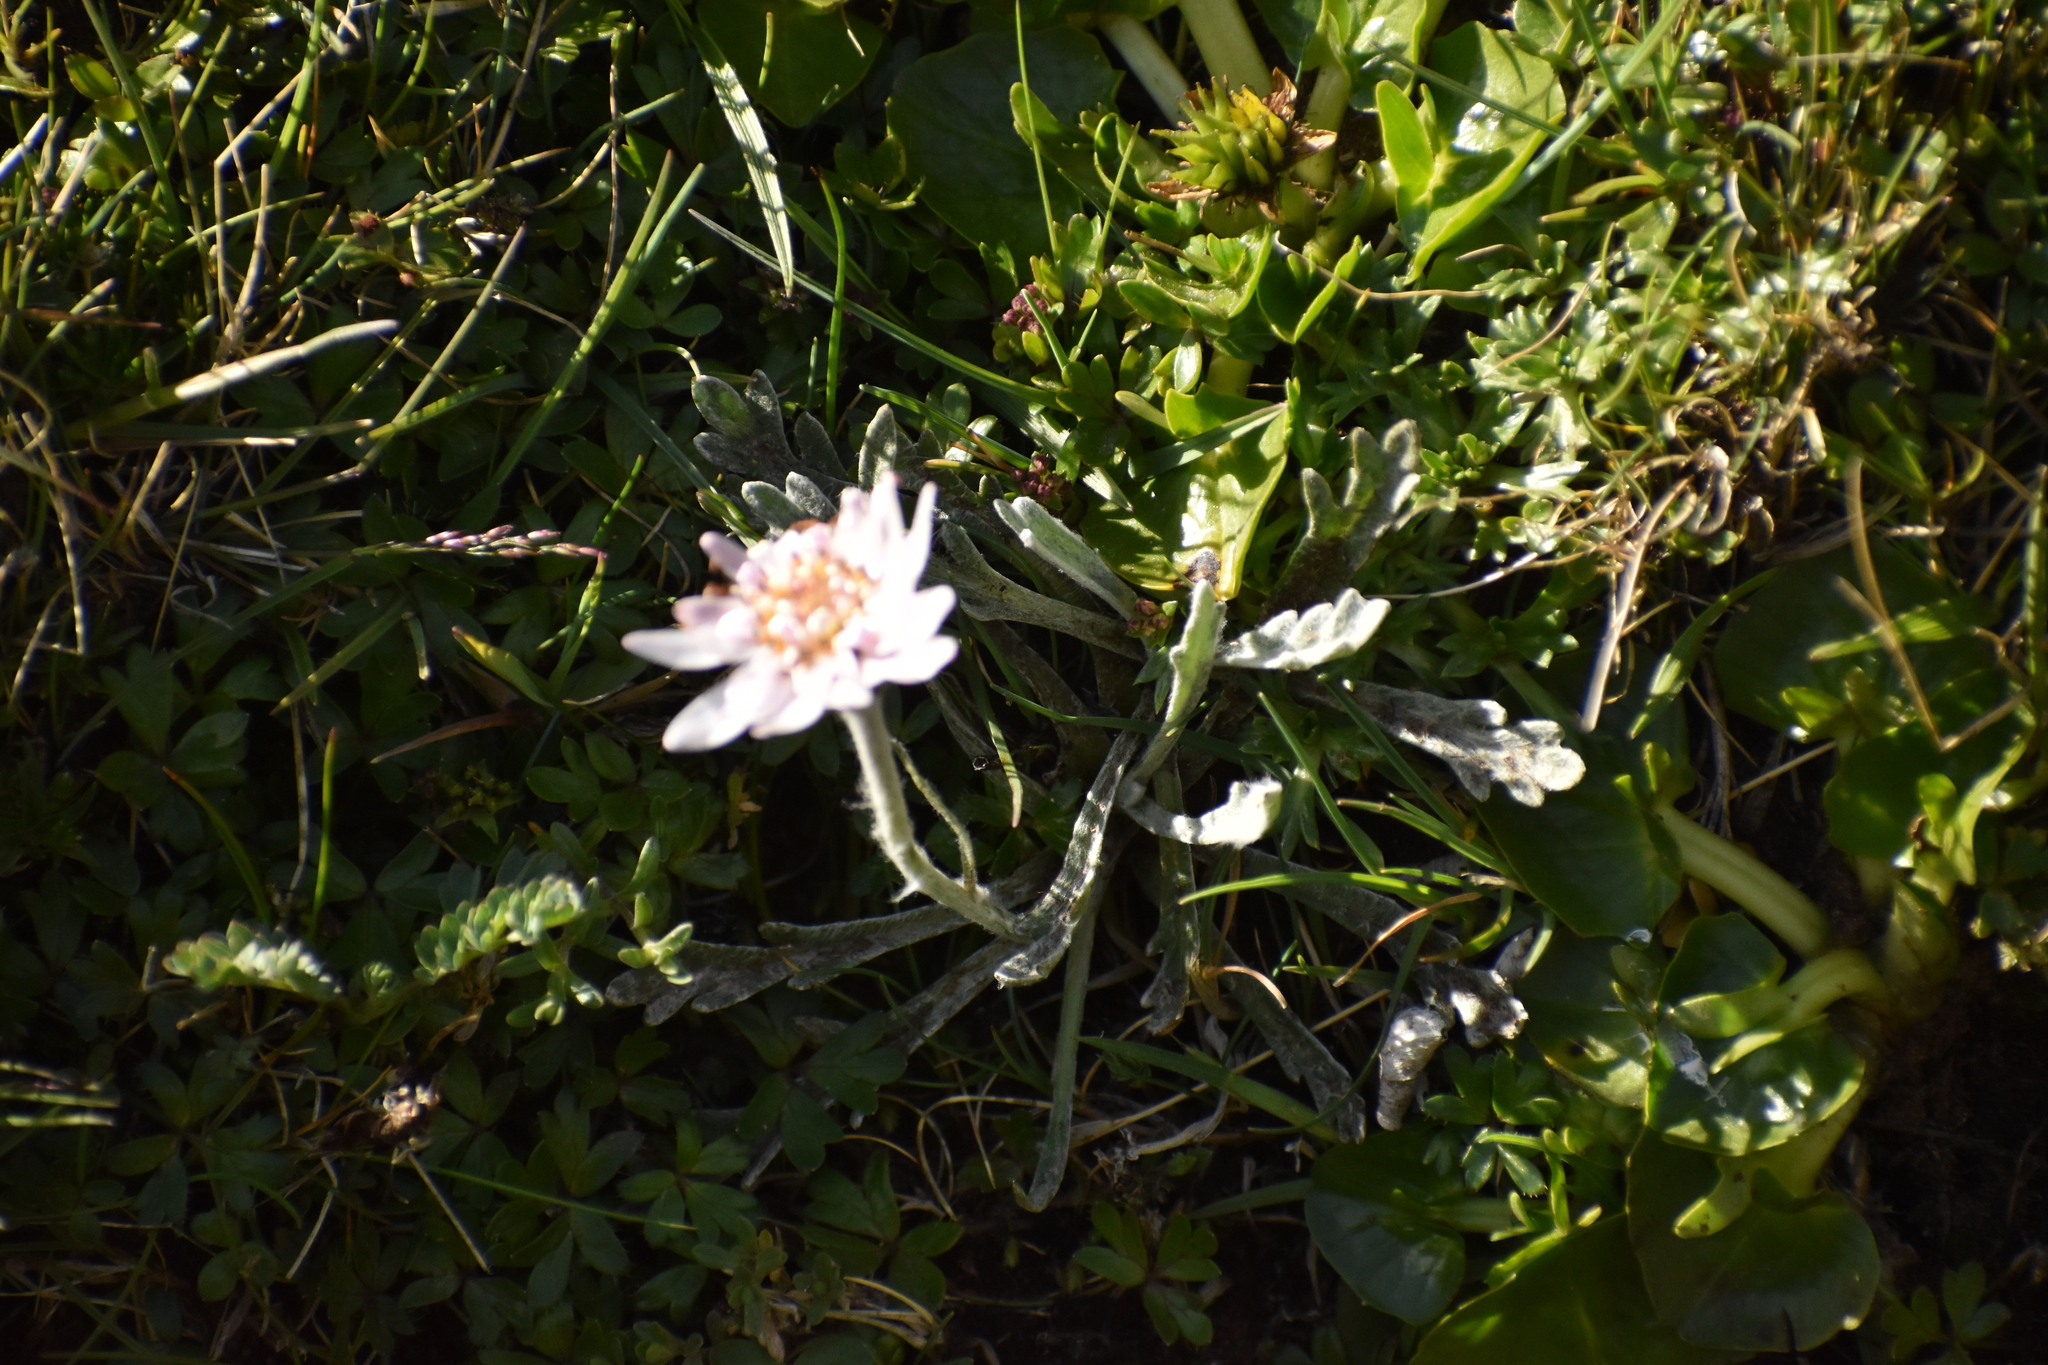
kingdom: Plantae
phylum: Tracheophyta
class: Magnoliopsida
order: Asterales
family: Asteraceae
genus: Leucheria
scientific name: Leucheria hahnii
